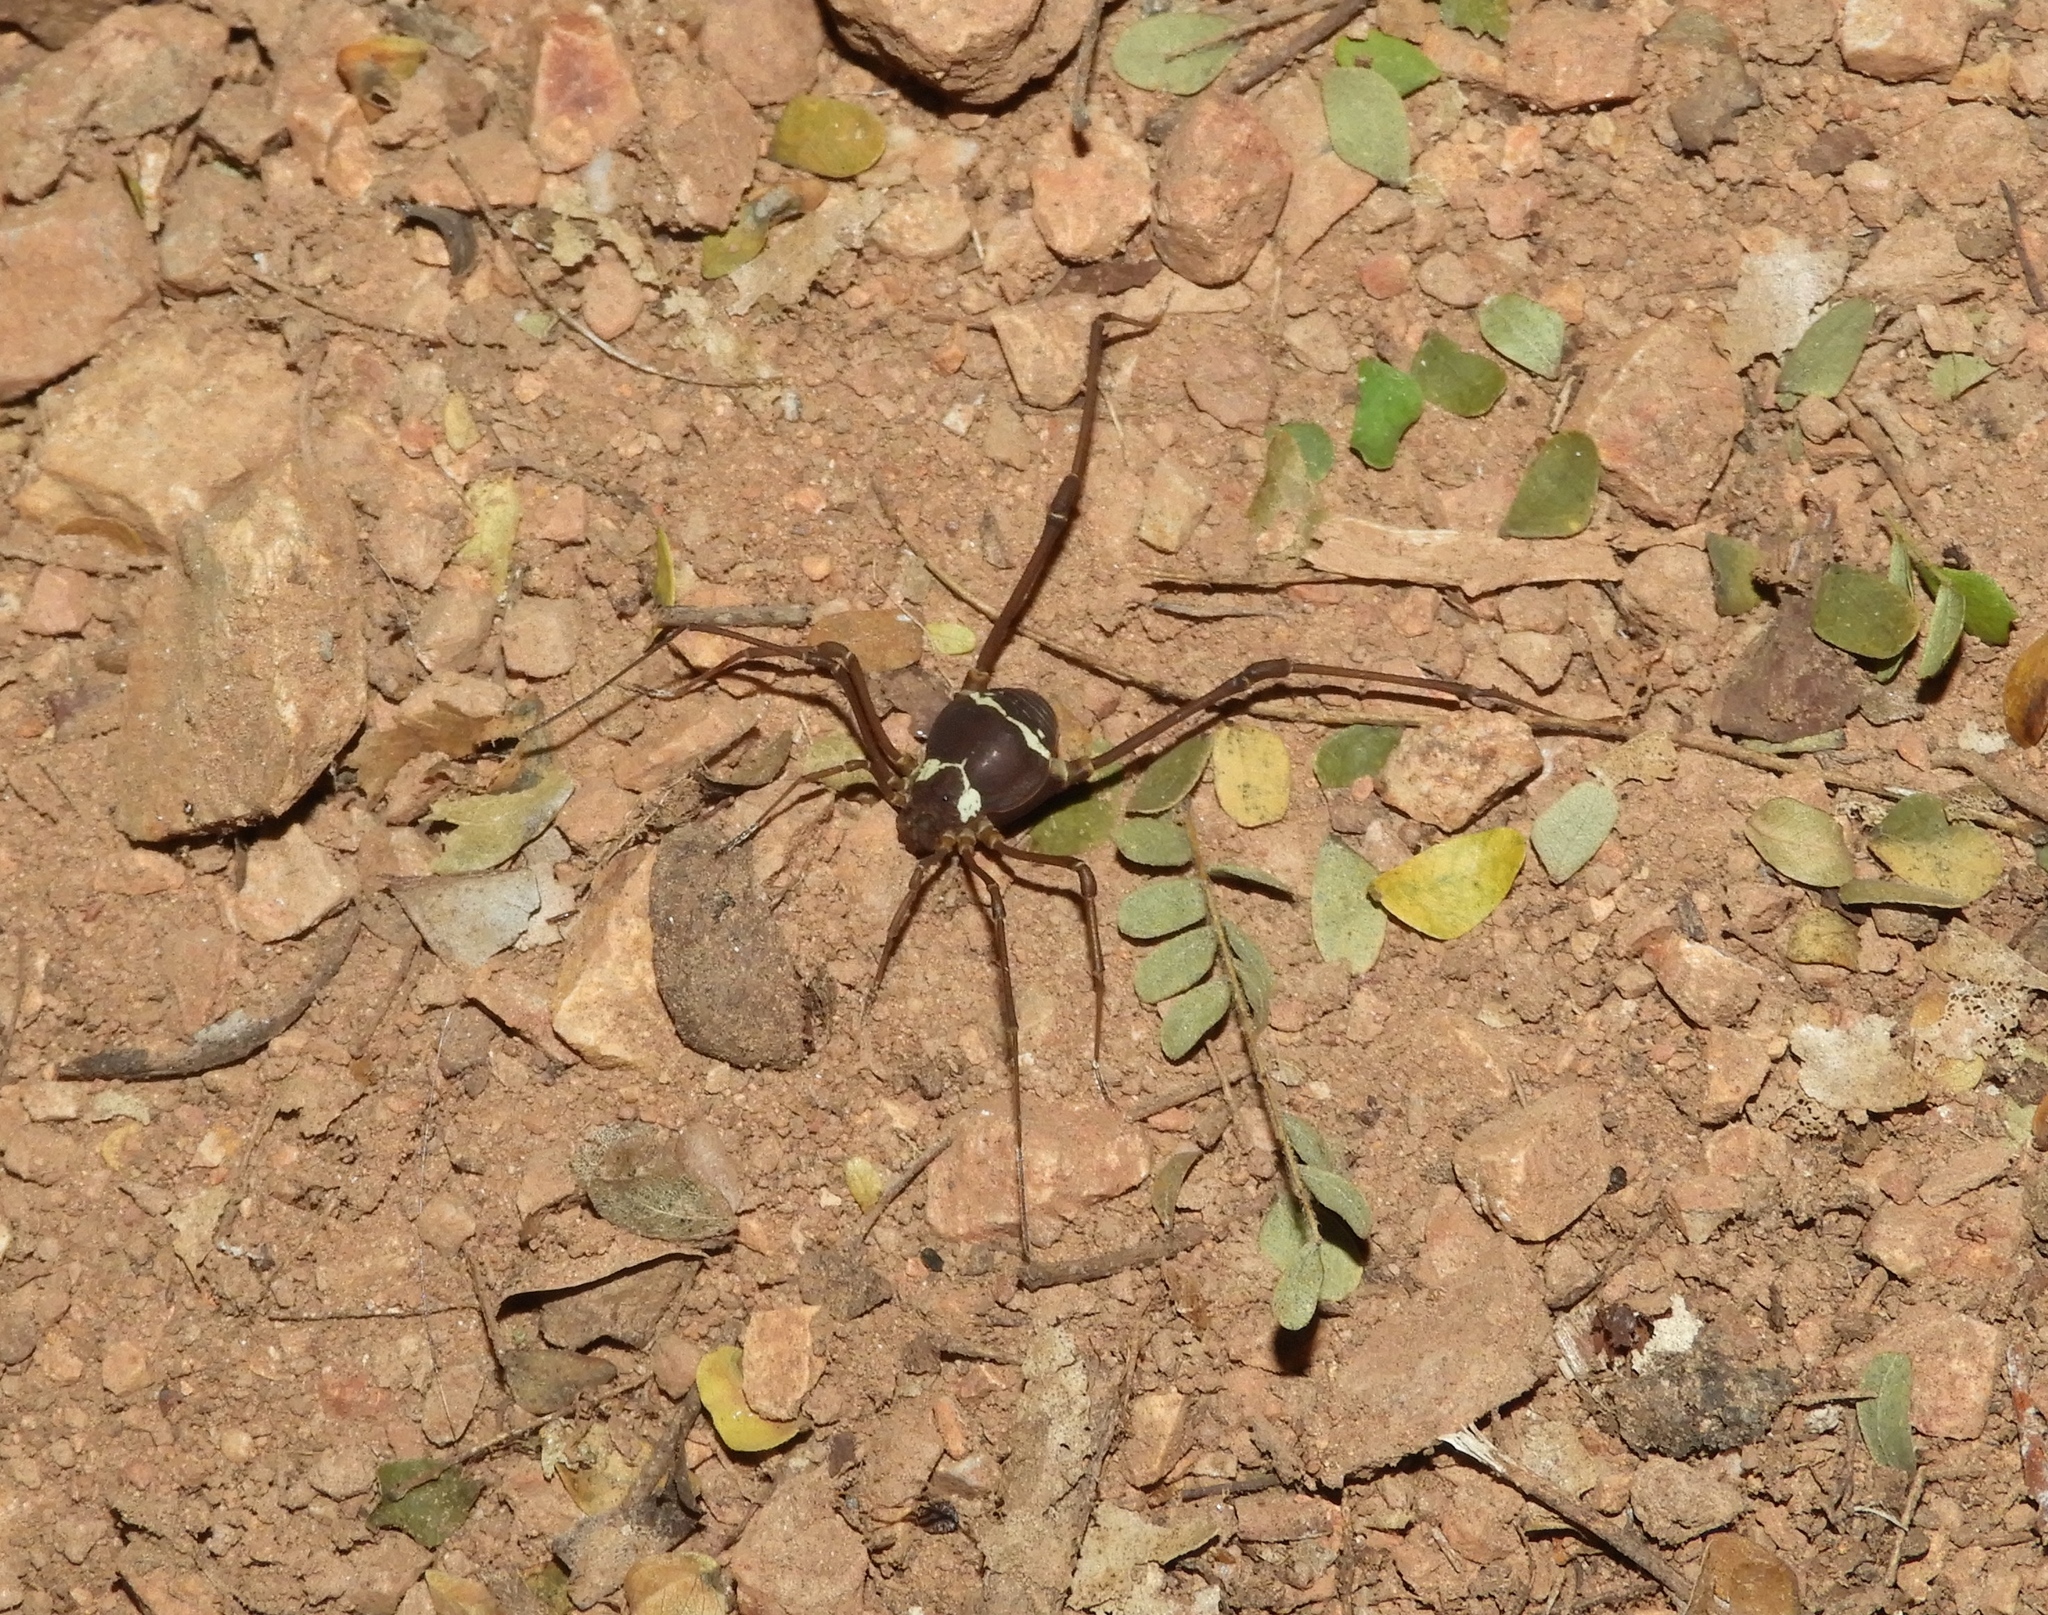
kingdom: Animalia
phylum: Arthropoda
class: Arachnida
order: Opiliones
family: Cosmetidae
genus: Paravonones
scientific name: Paravonones
